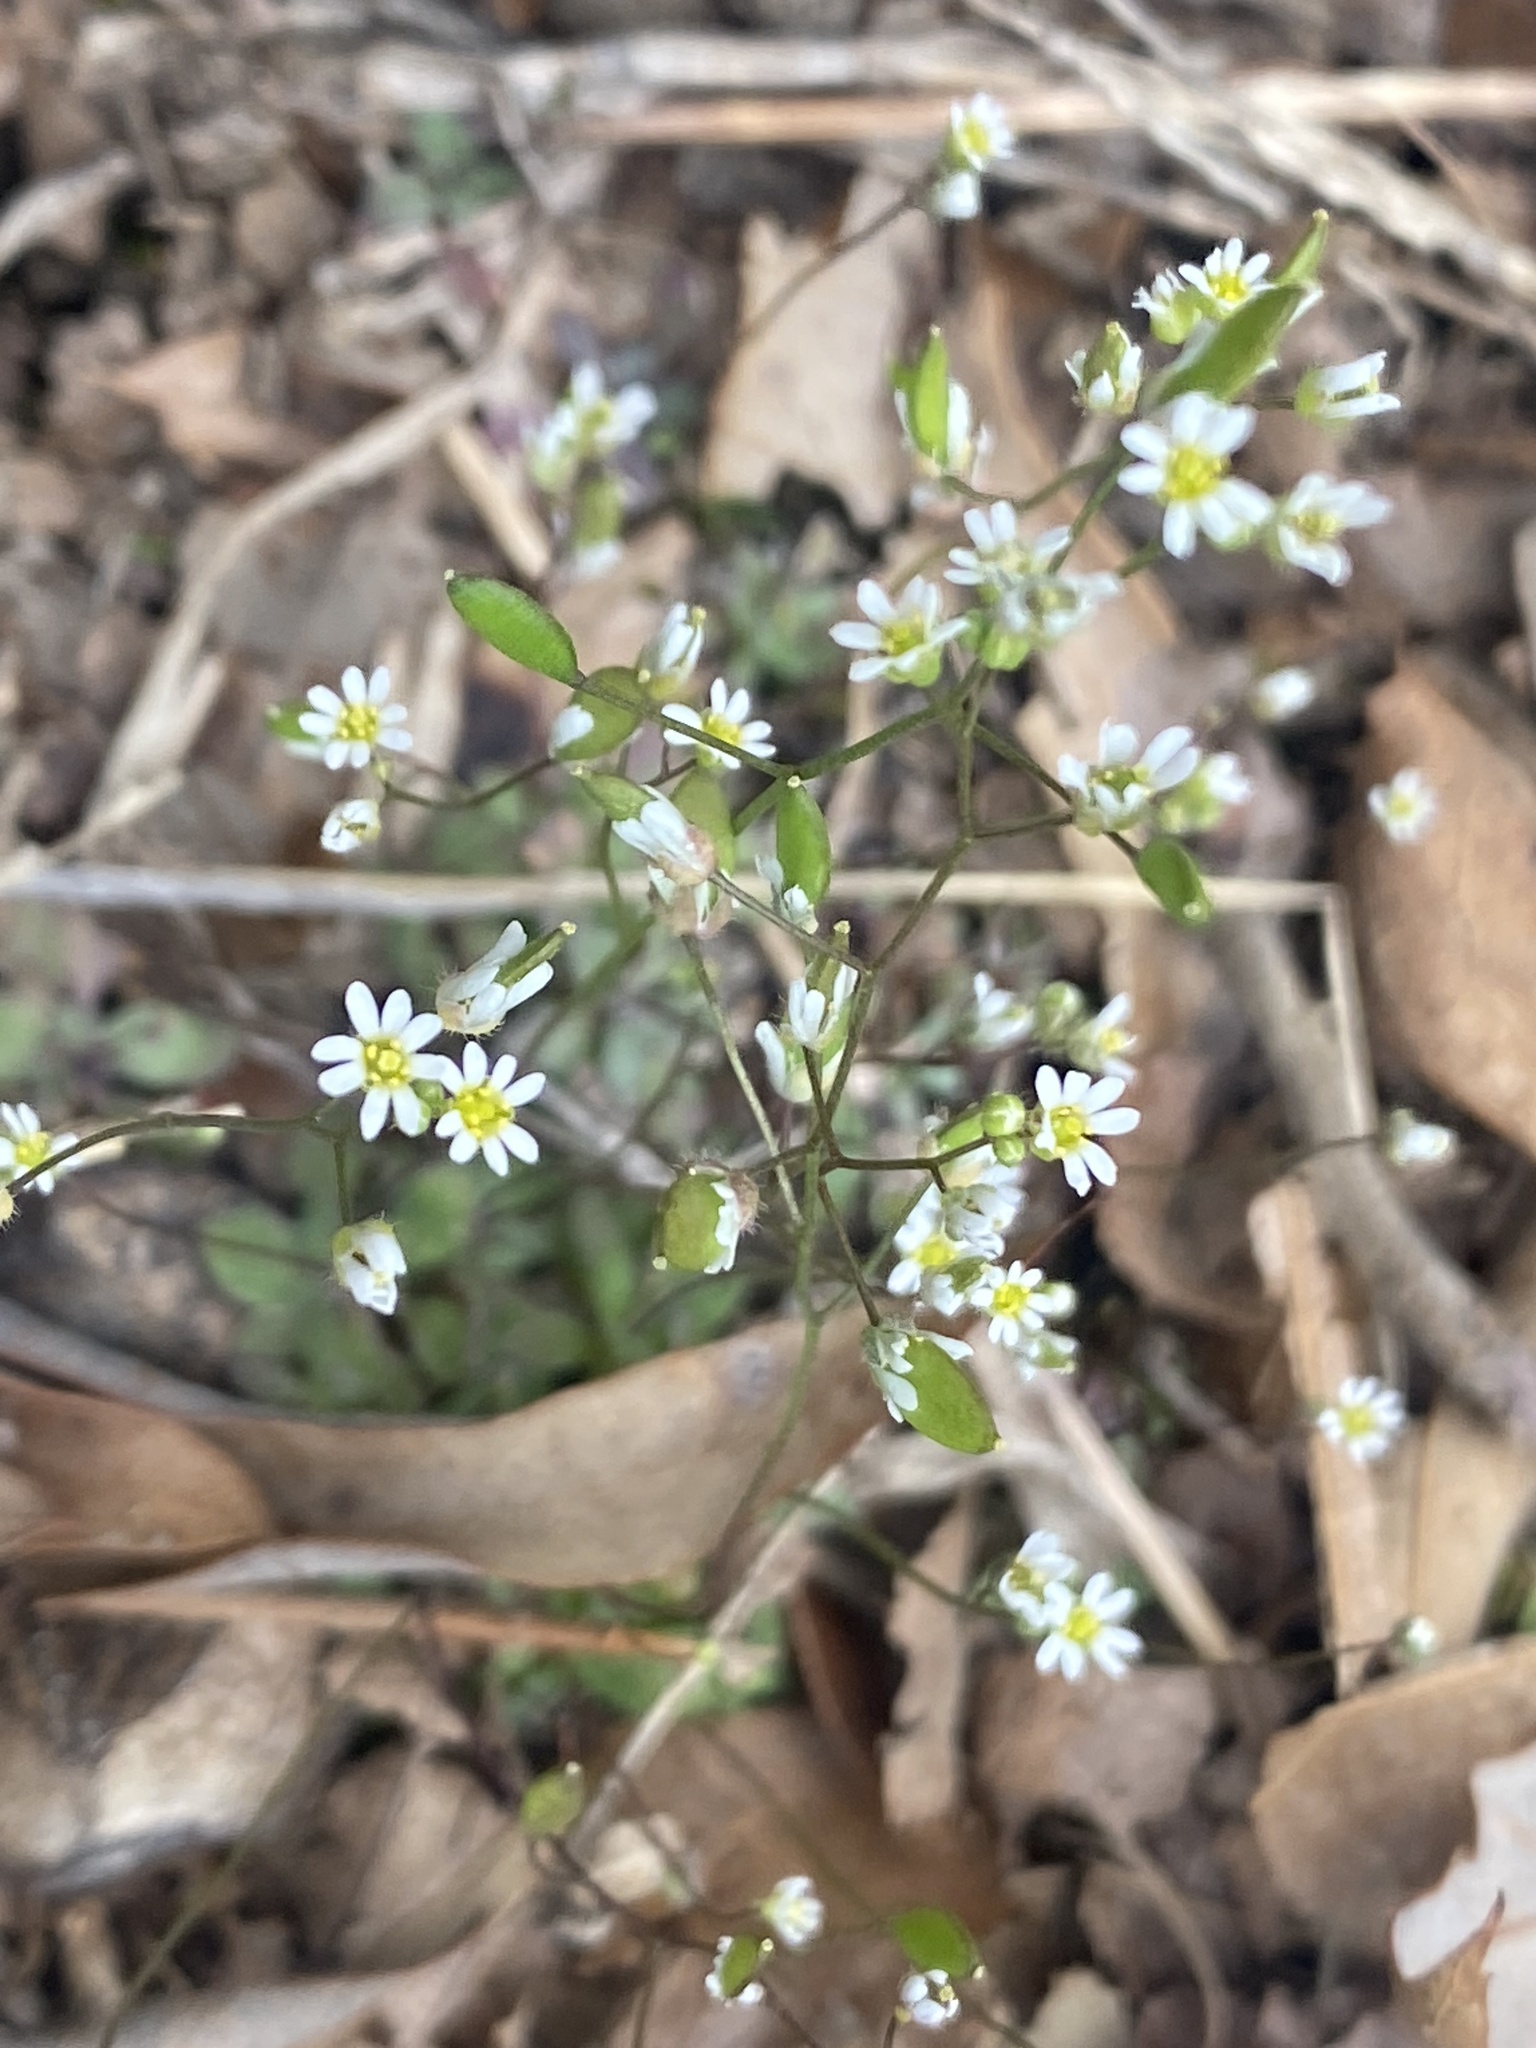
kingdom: Plantae
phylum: Tracheophyta
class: Magnoliopsida
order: Brassicales
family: Brassicaceae
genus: Draba
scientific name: Draba verna
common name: Spring draba
